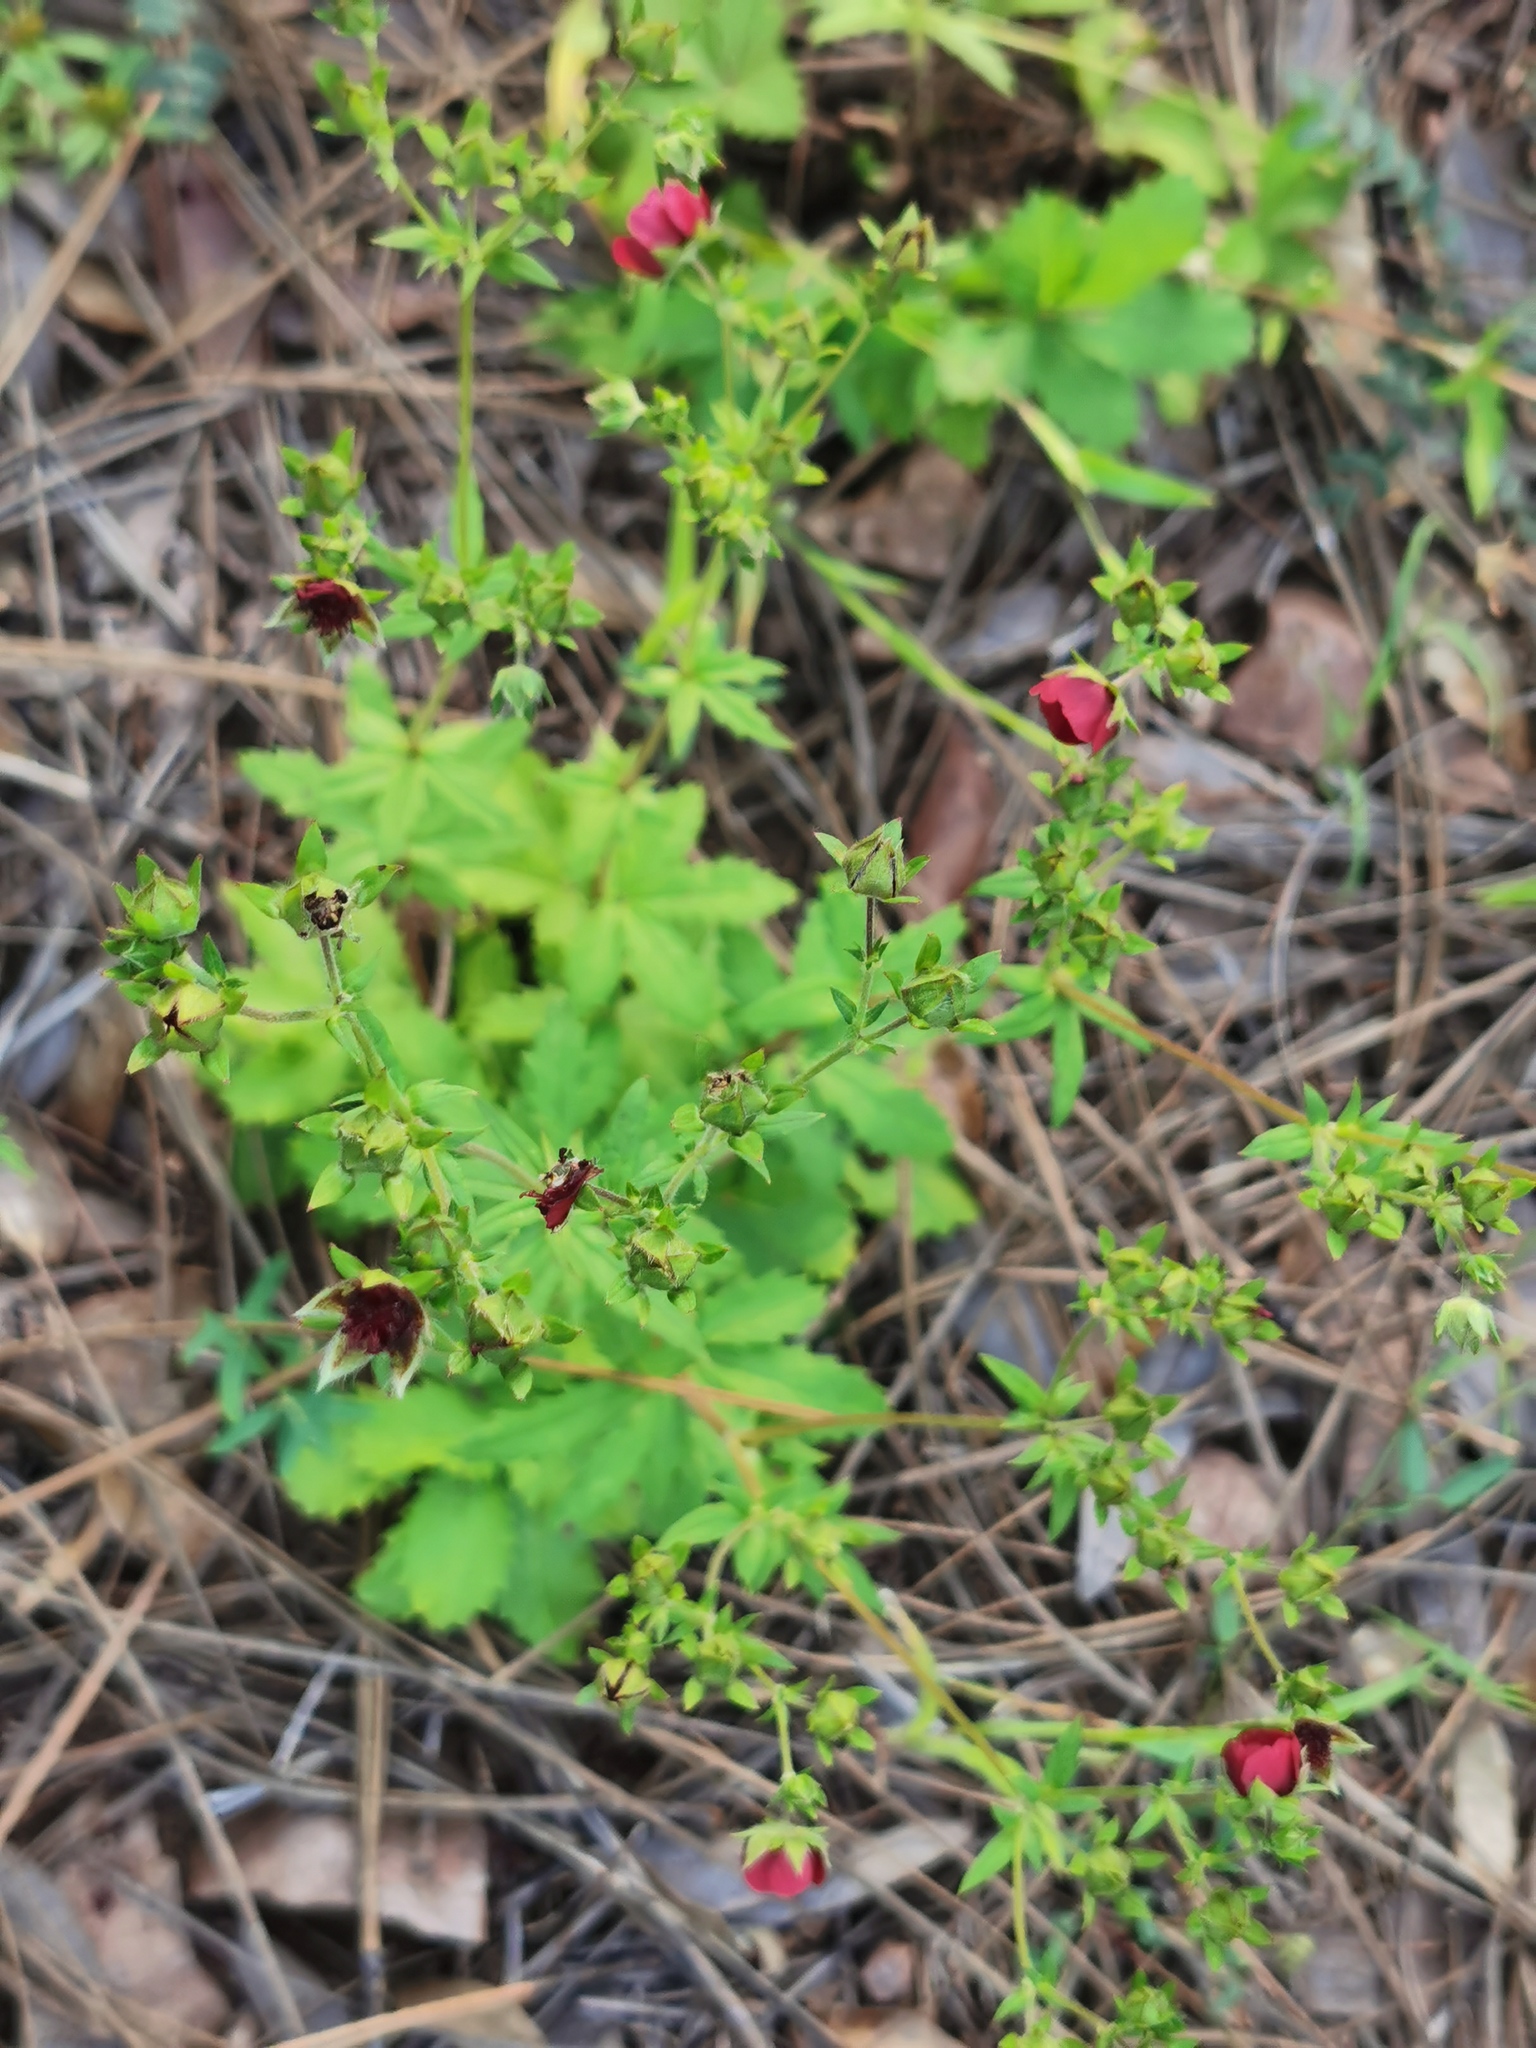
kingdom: Plantae
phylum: Tracheophyta
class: Magnoliopsida
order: Rosales
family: Rosaceae
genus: Potentilla
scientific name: Potentilla thurberi
